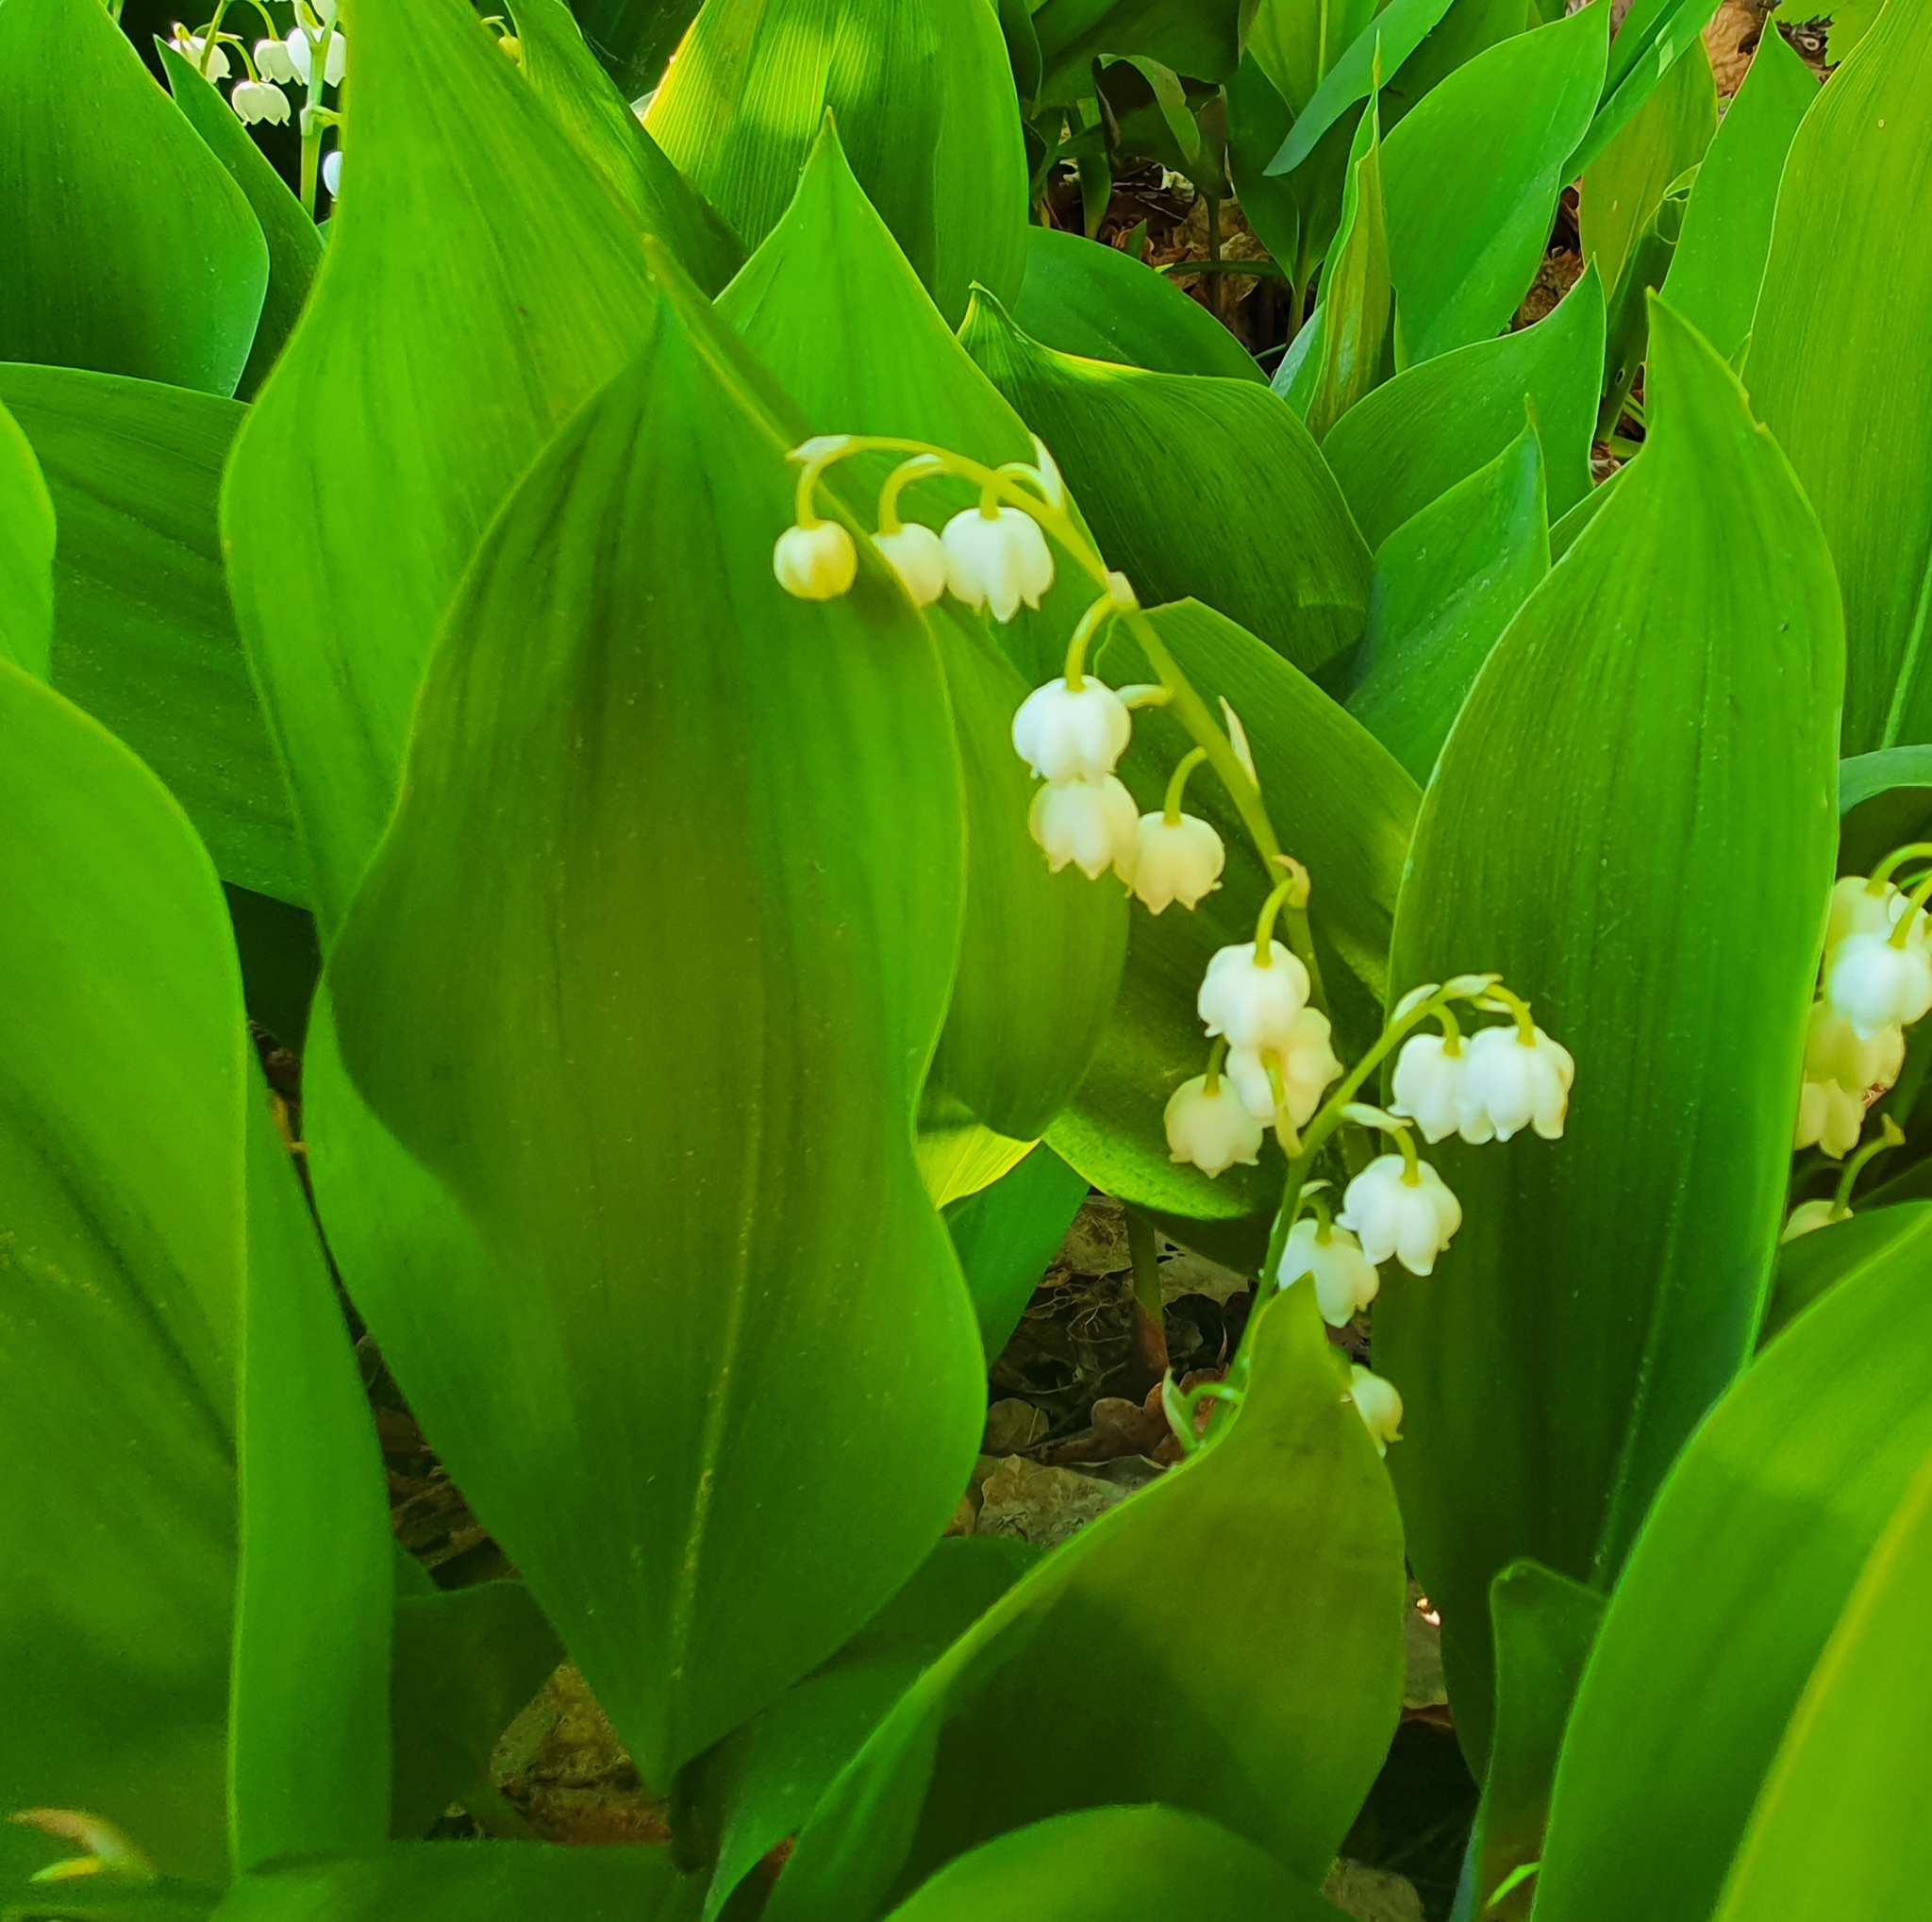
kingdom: Plantae
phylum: Tracheophyta
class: Liliopsida
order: Asparagales
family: Asparagaceae
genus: Convallaria
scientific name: Convallaria majalis
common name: Lily-of-the-valley
